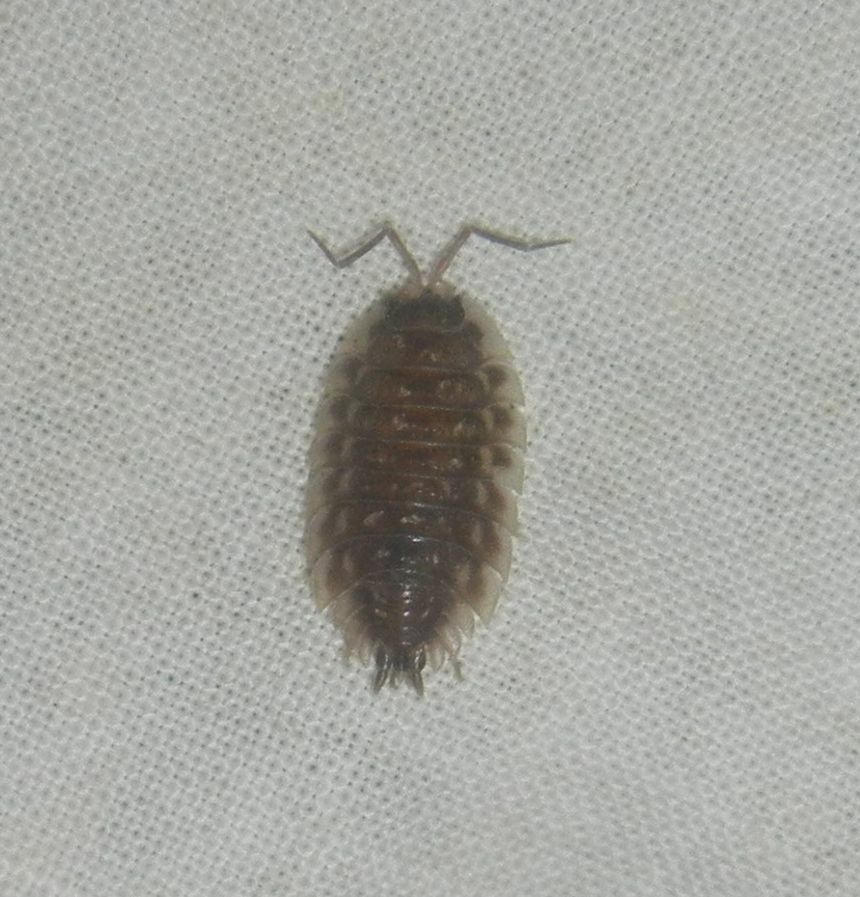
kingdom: Animalia
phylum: Arthropoda
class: Malacostraca
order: Isopoda
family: Oniscidae
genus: Oniscus
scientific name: Oniscus asellus
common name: Common shiny woodlouse
